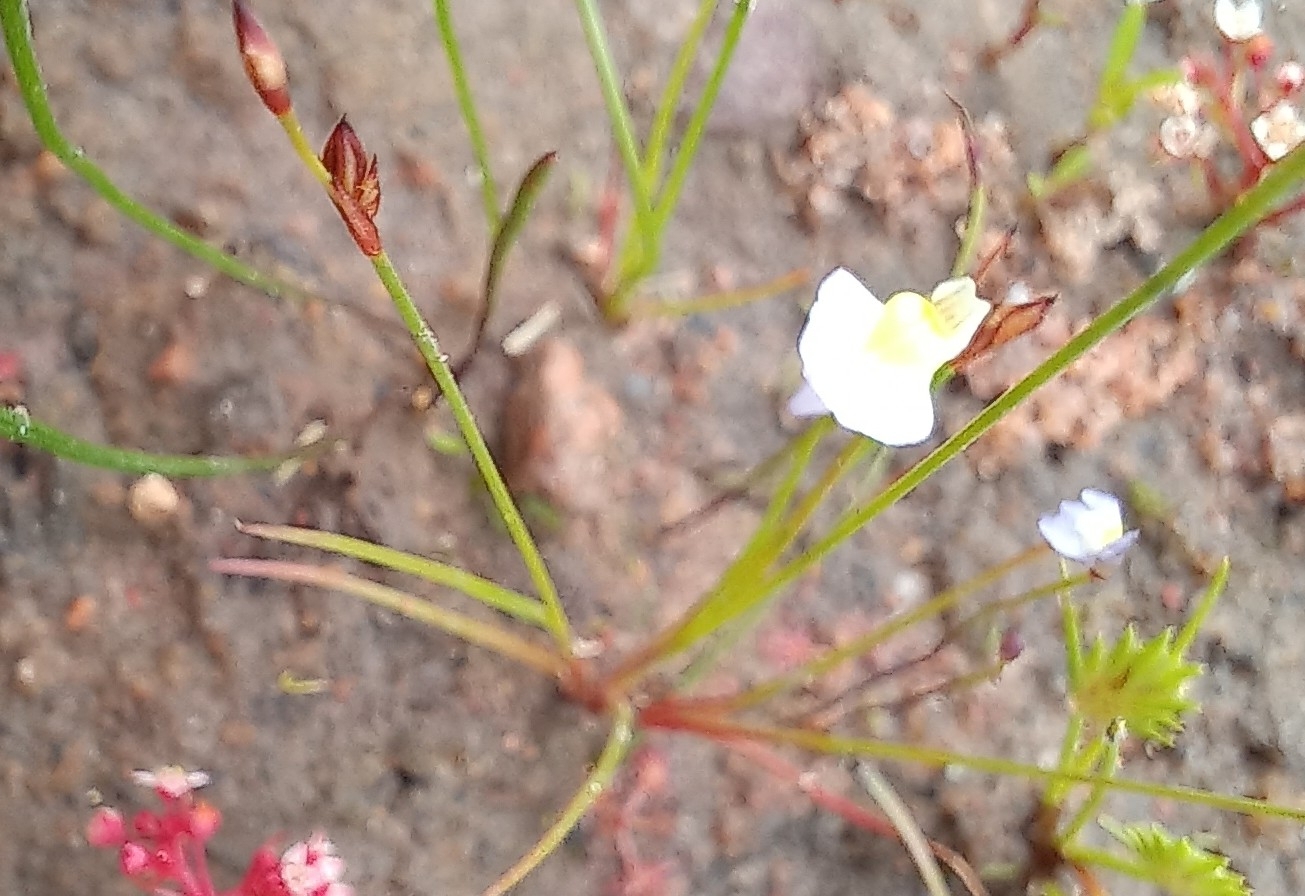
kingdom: Plantae
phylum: Tracheophyta
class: Magnoliopsida
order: Lamiales
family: Lentibulariaceae
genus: Utricularia
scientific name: Utricularia bisquamata
